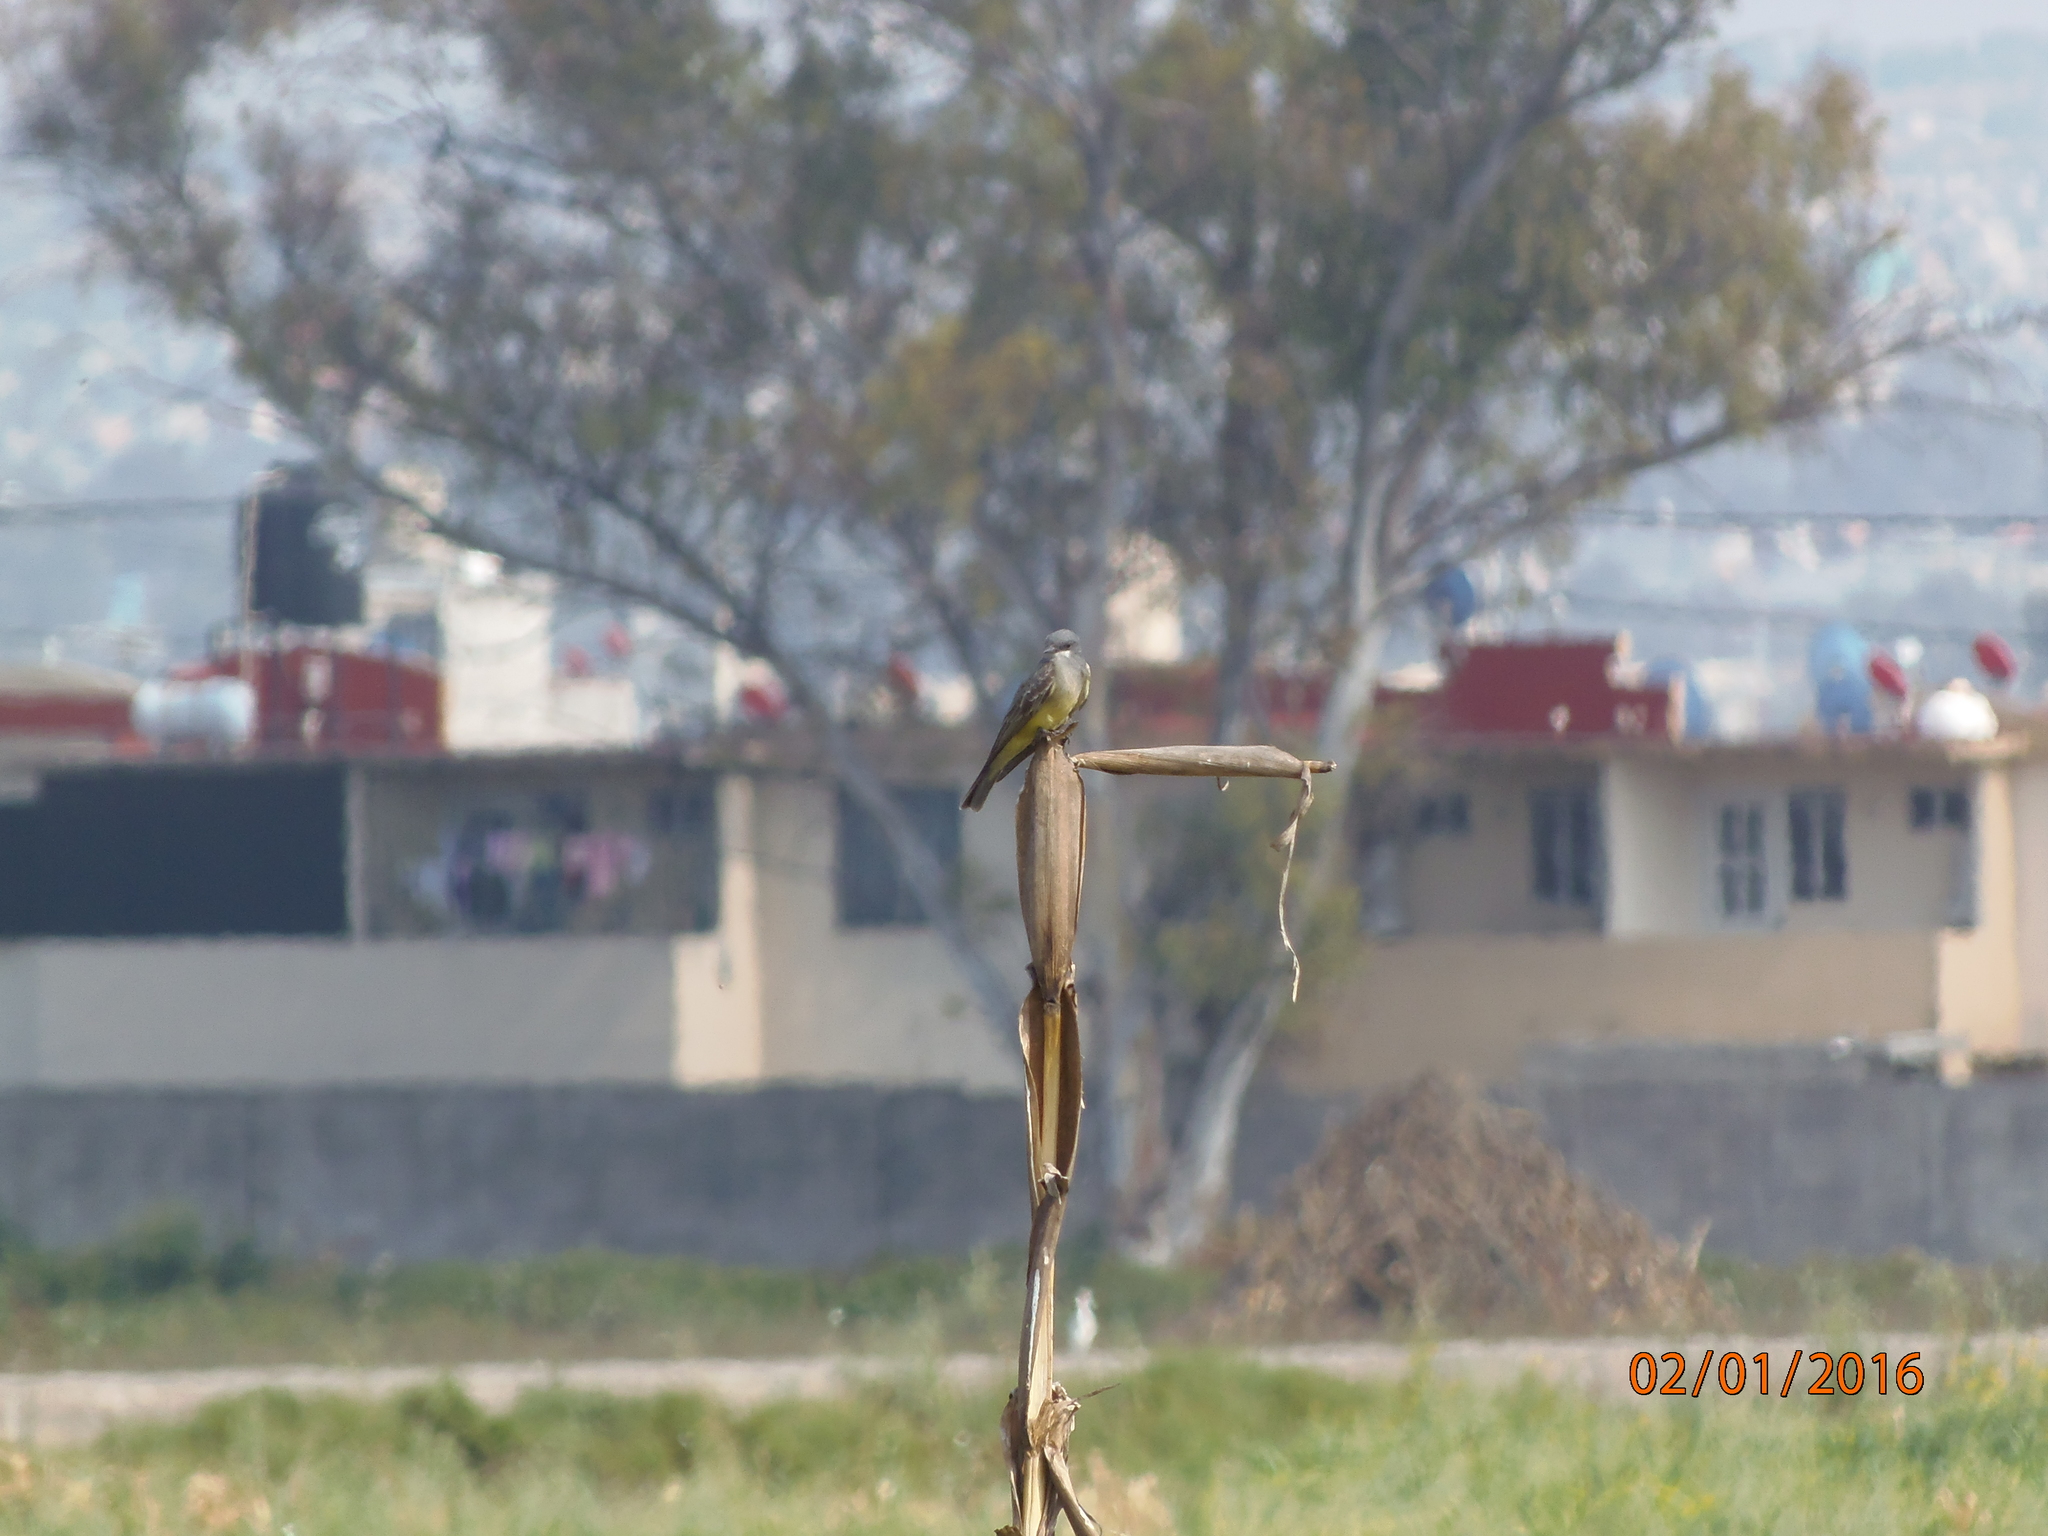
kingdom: Animalia
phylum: Chordata
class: Aves
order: Passeriformes
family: Tyrannidae
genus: Tyrannus
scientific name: Tyrannus vociferans
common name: Cassin's kingbird
